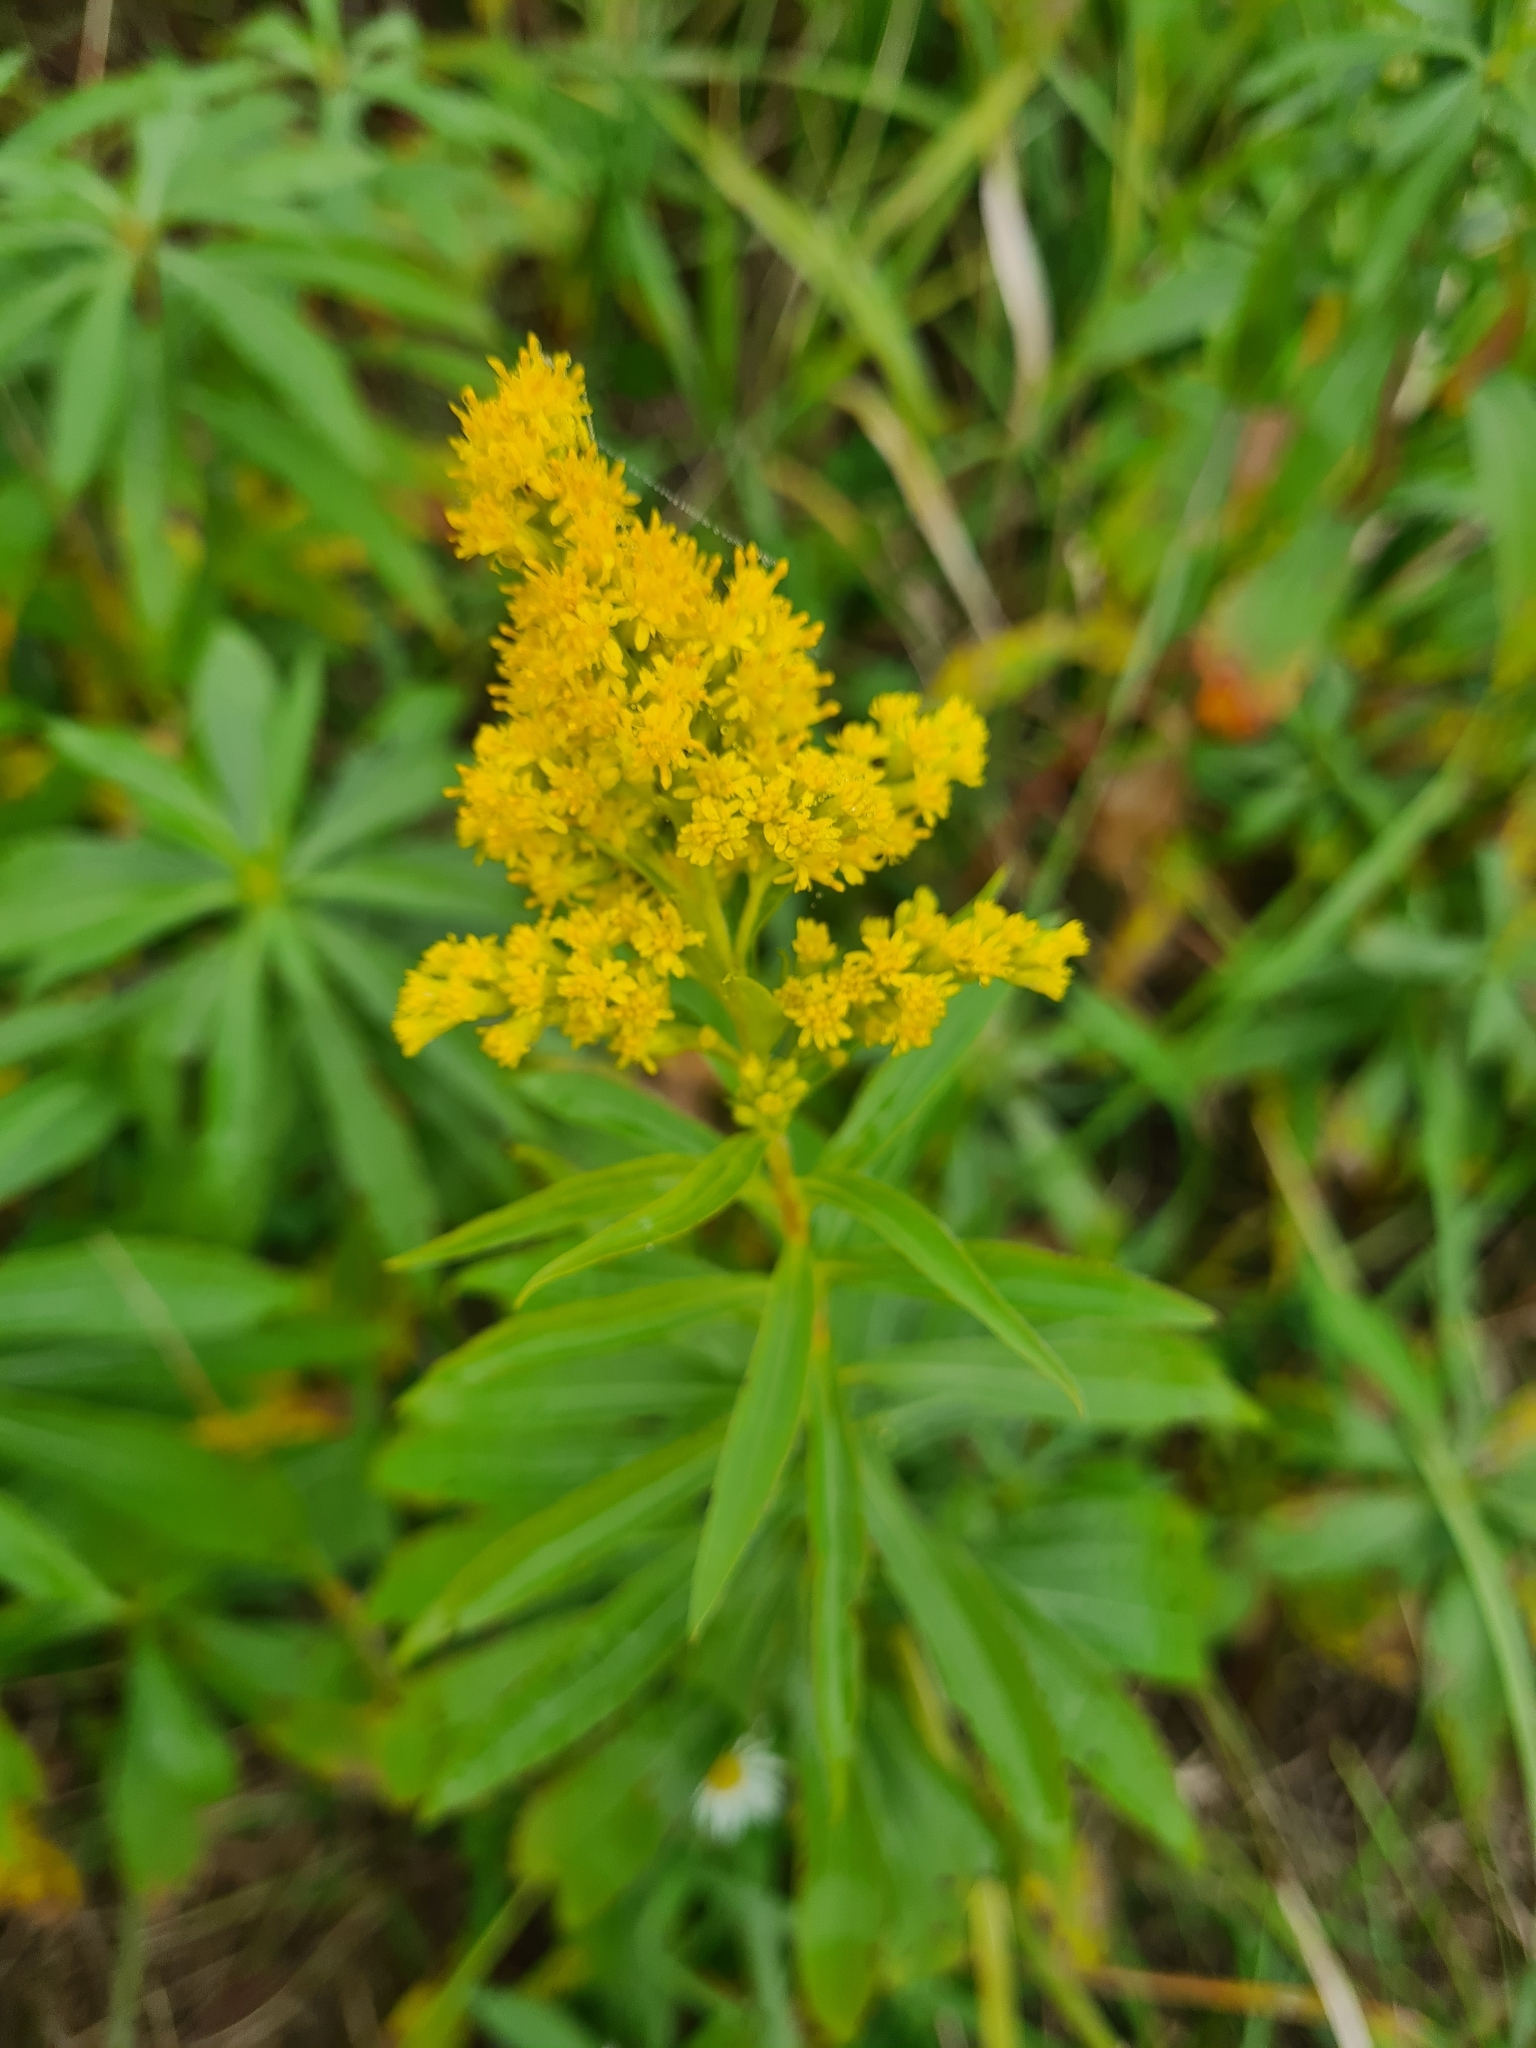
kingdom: Plantae
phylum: Tracheophyta
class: Magnoliopsida
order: Asterales
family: Asteraceae
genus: Solidago
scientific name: Solidago gigantea
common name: Giant goldenrod
